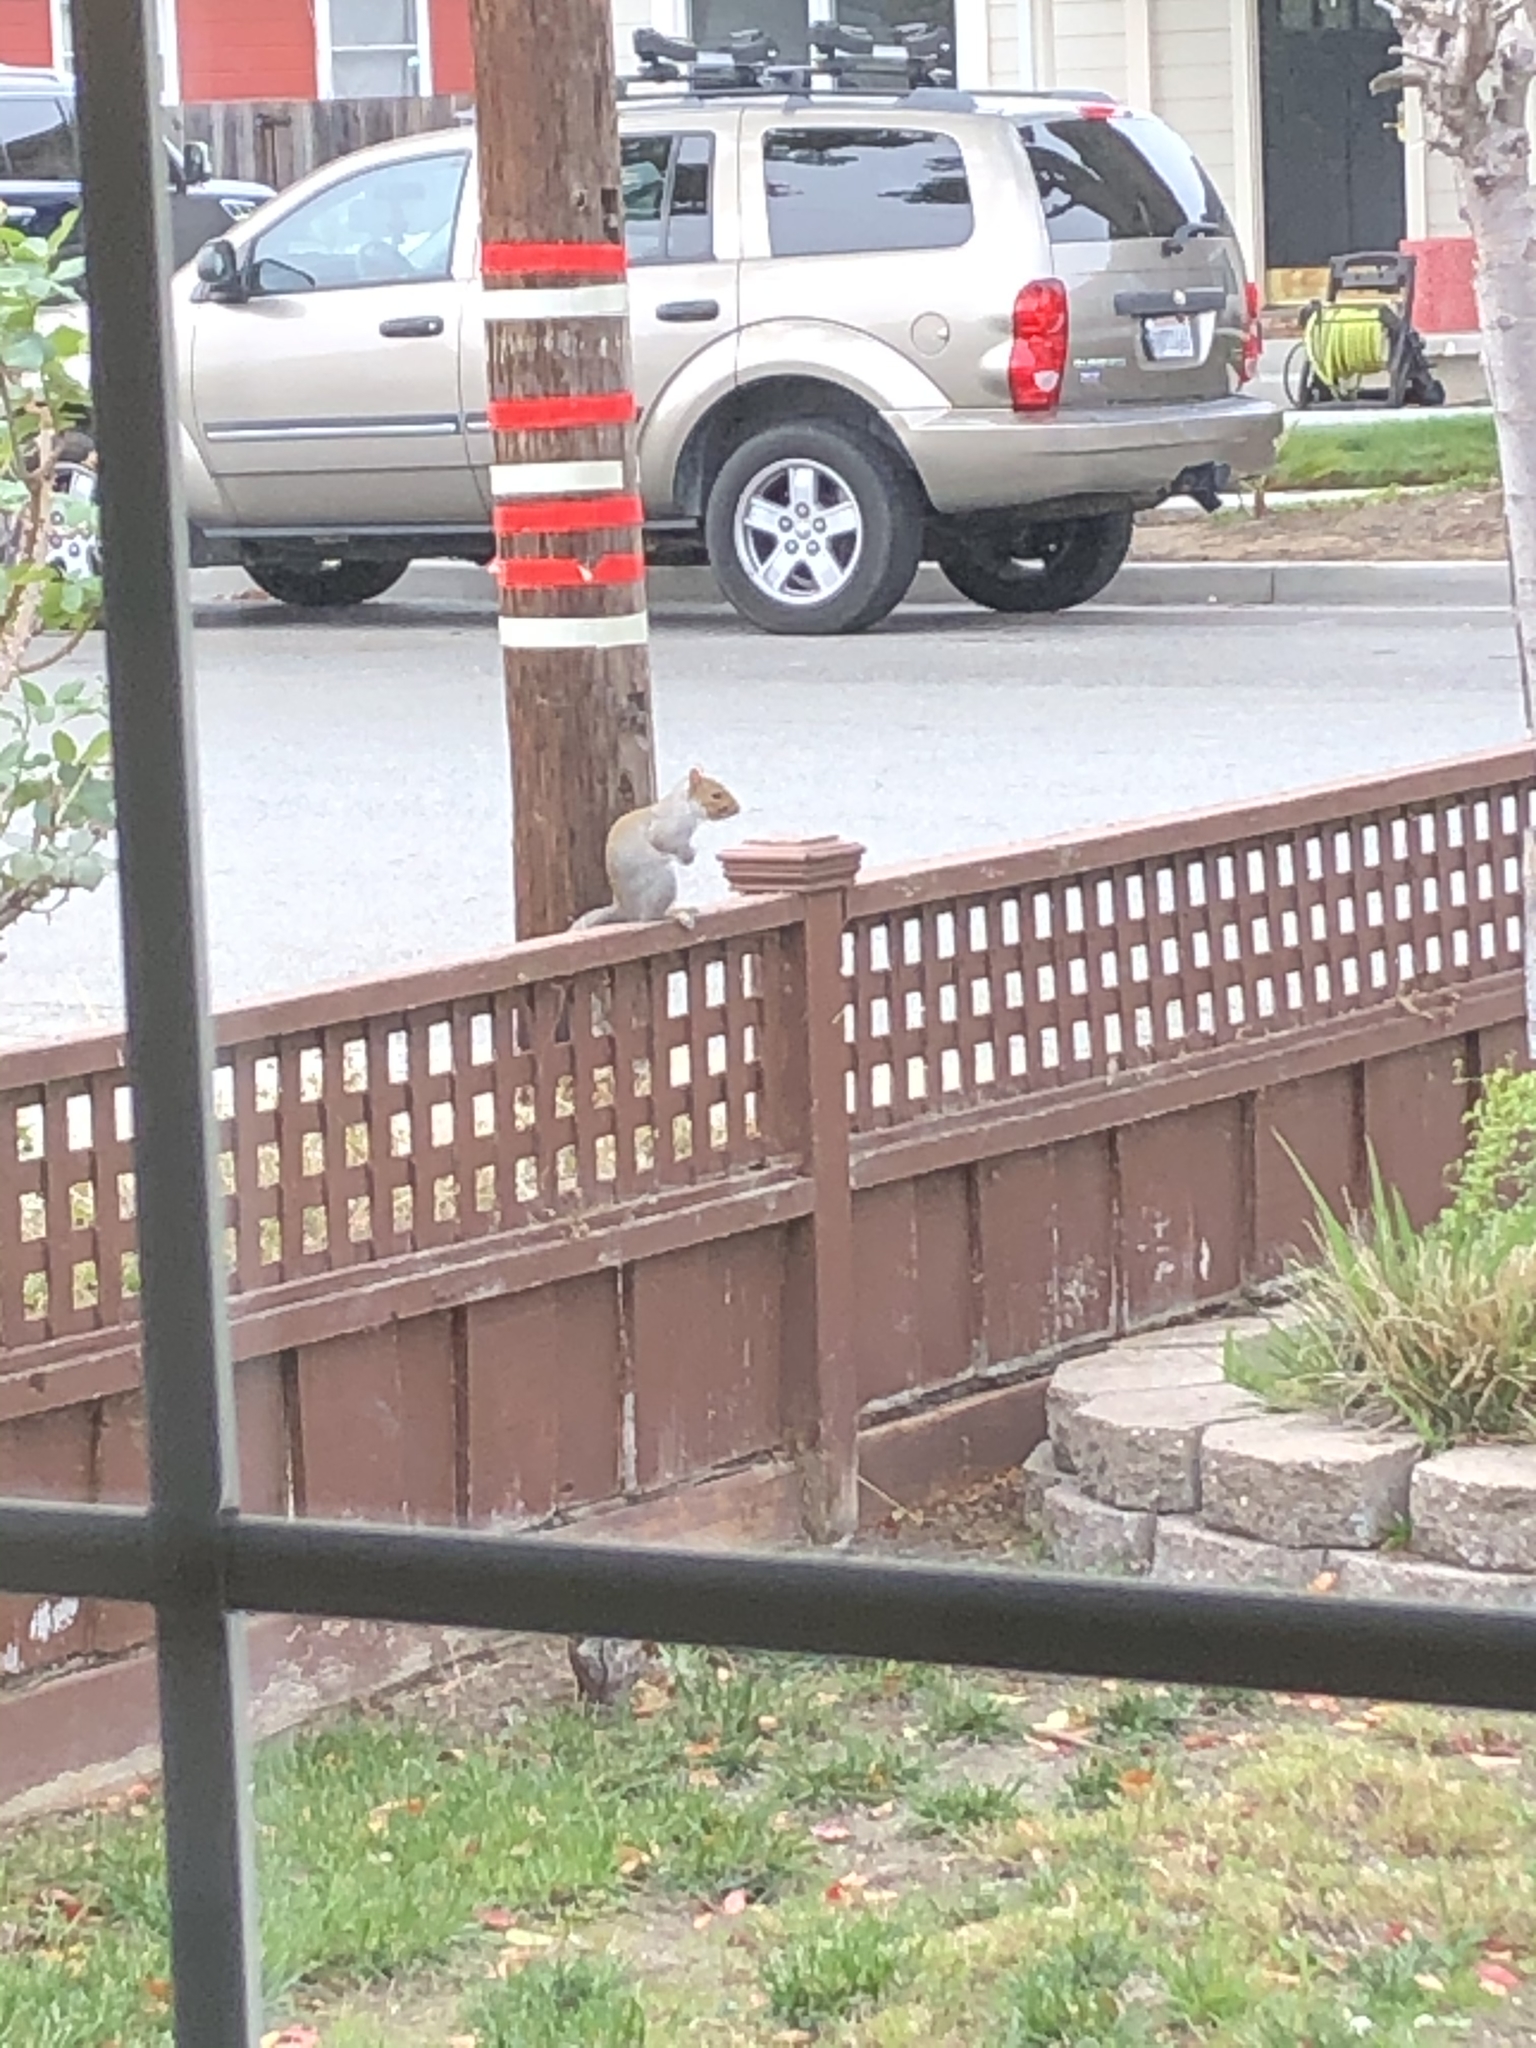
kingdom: Animalia
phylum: Chordata
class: Mammalia
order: Rodentia
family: Sciuridae
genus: Sciurus
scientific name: Sciurus carolinensis
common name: Eastern gray squirrel
